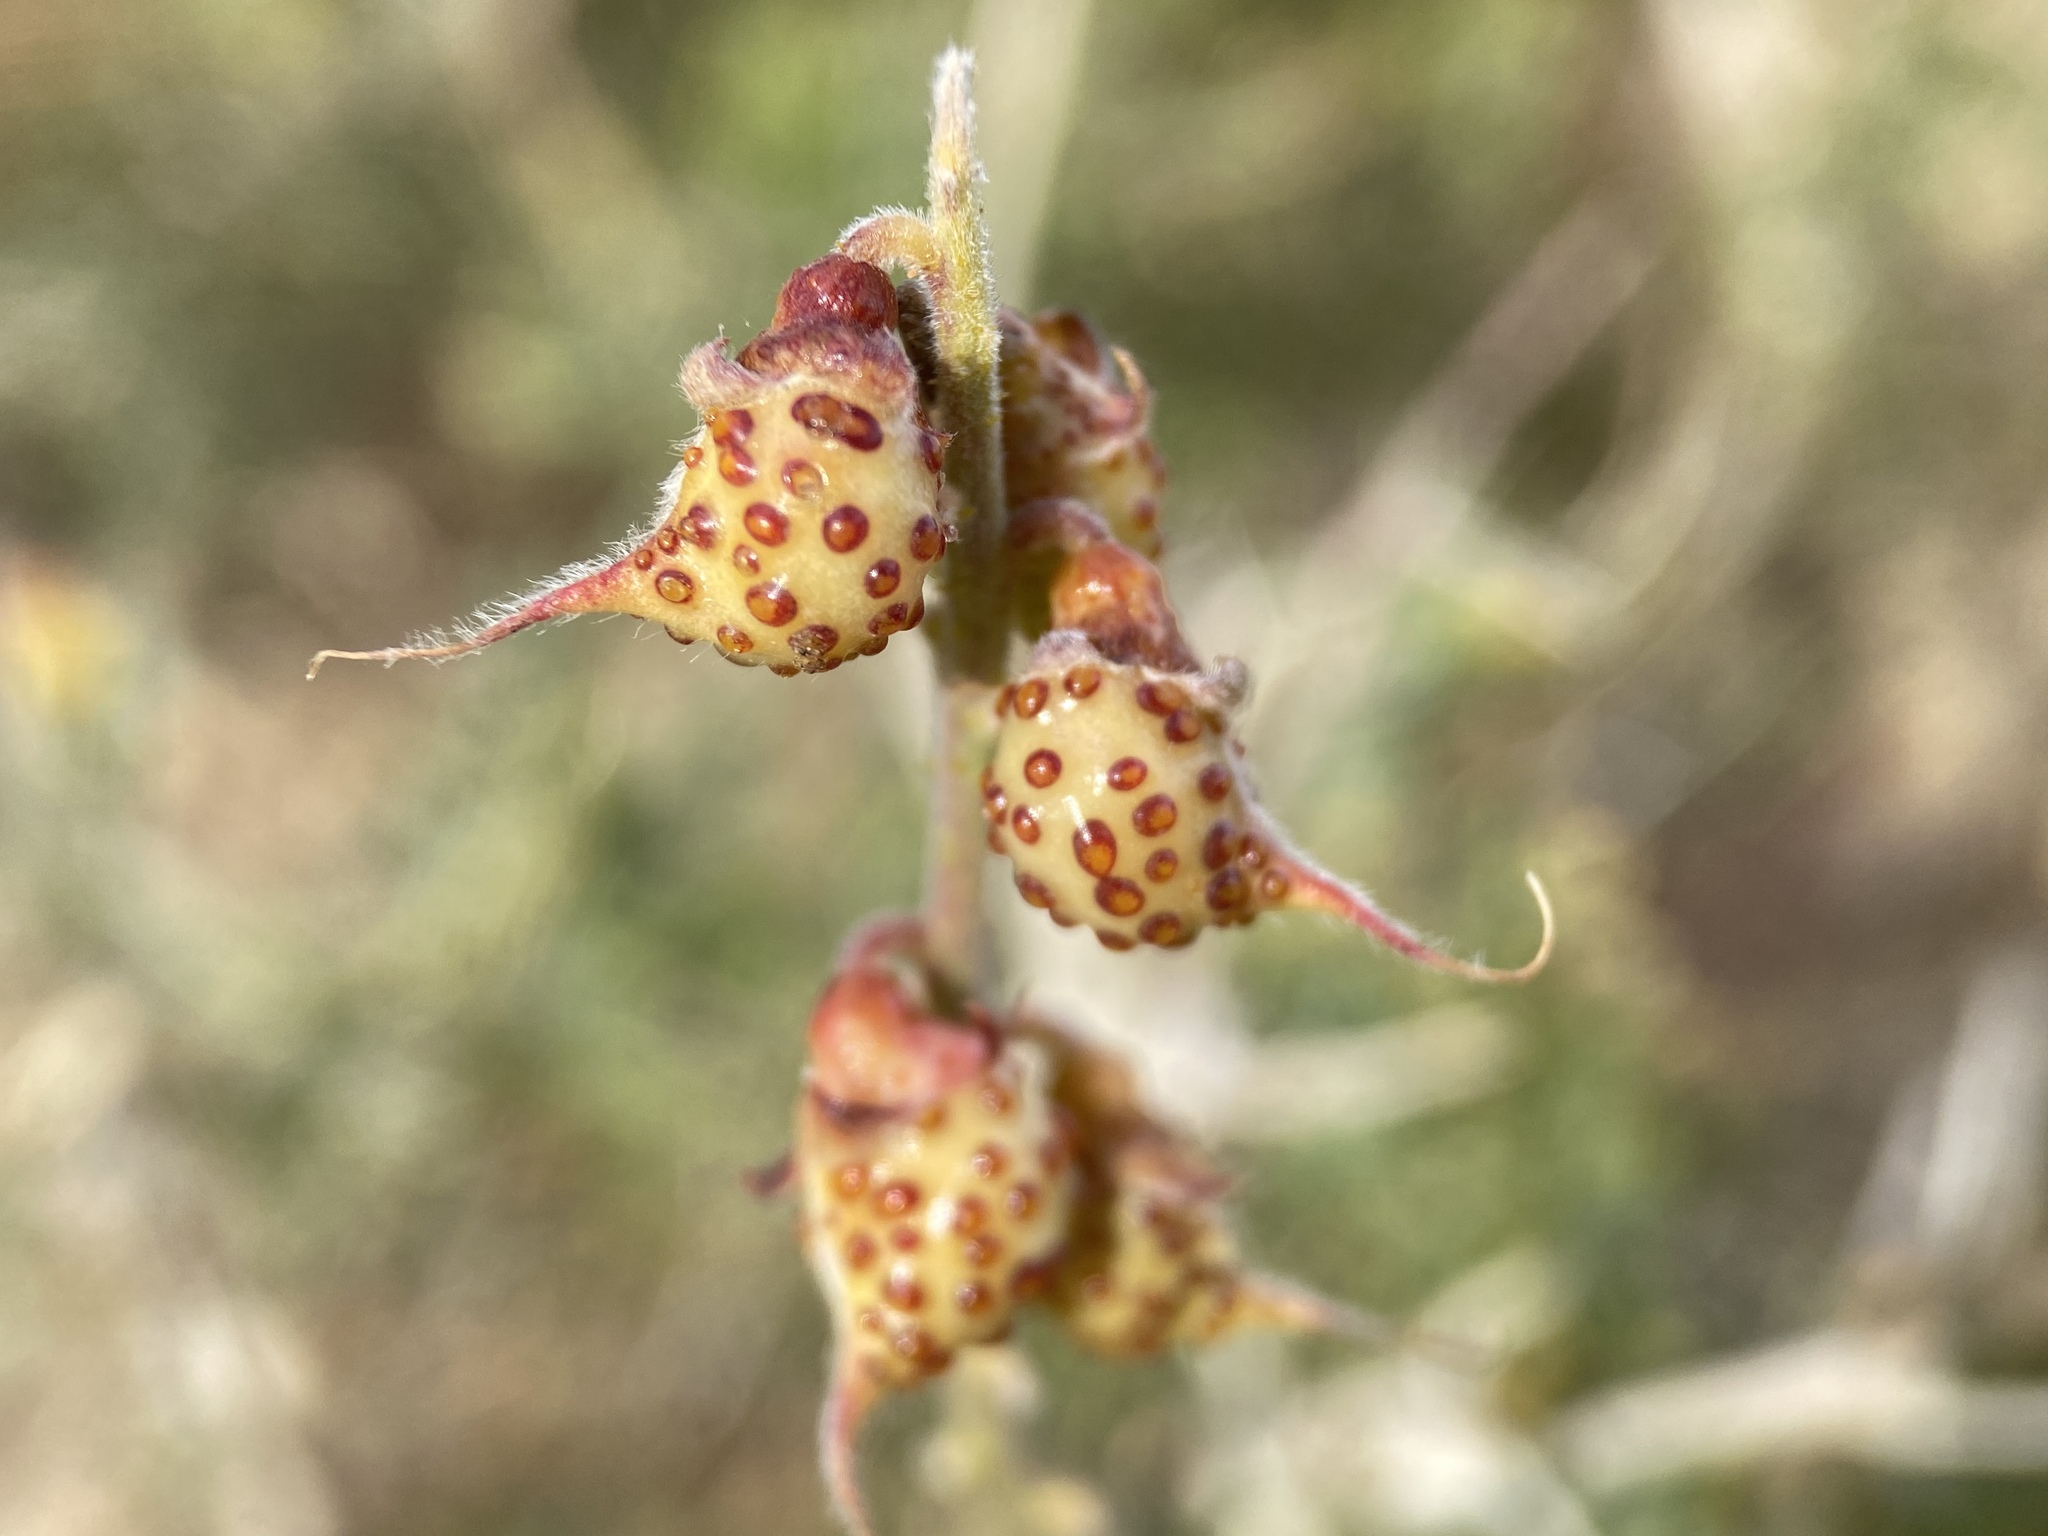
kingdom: Plantae
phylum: Tracheophyta
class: Magnoliopsida
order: Fabales
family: Fabaceae
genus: Psorothamnus
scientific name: Psorothamnus arborescens
